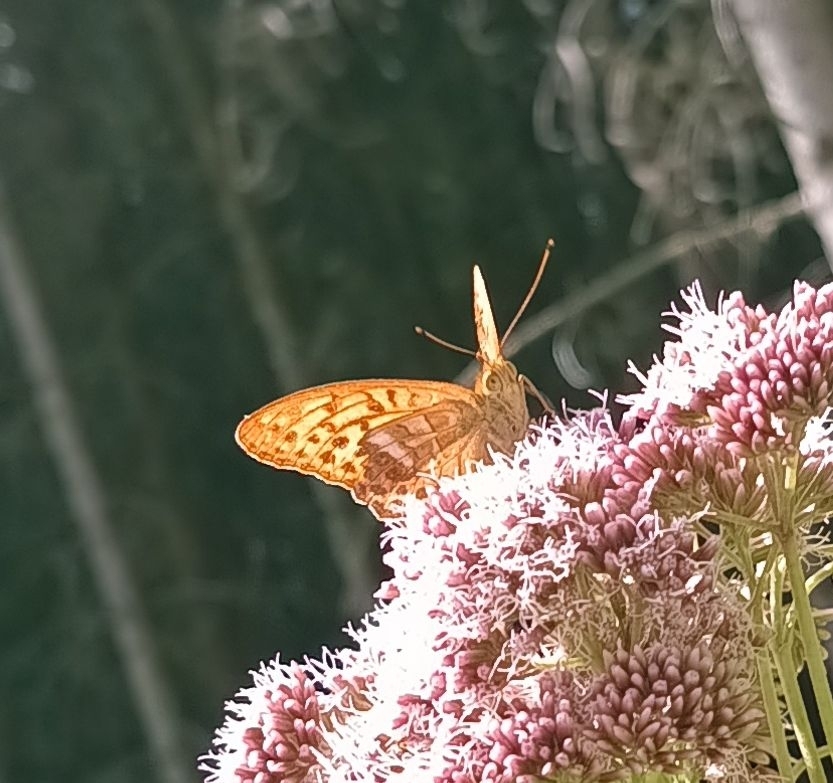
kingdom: Animalia
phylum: Arthropoda
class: Insecta
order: Lepidoptera
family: Nymphalidae
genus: Argynnis
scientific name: Argynnis paphia
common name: Silver-washed fritillary
